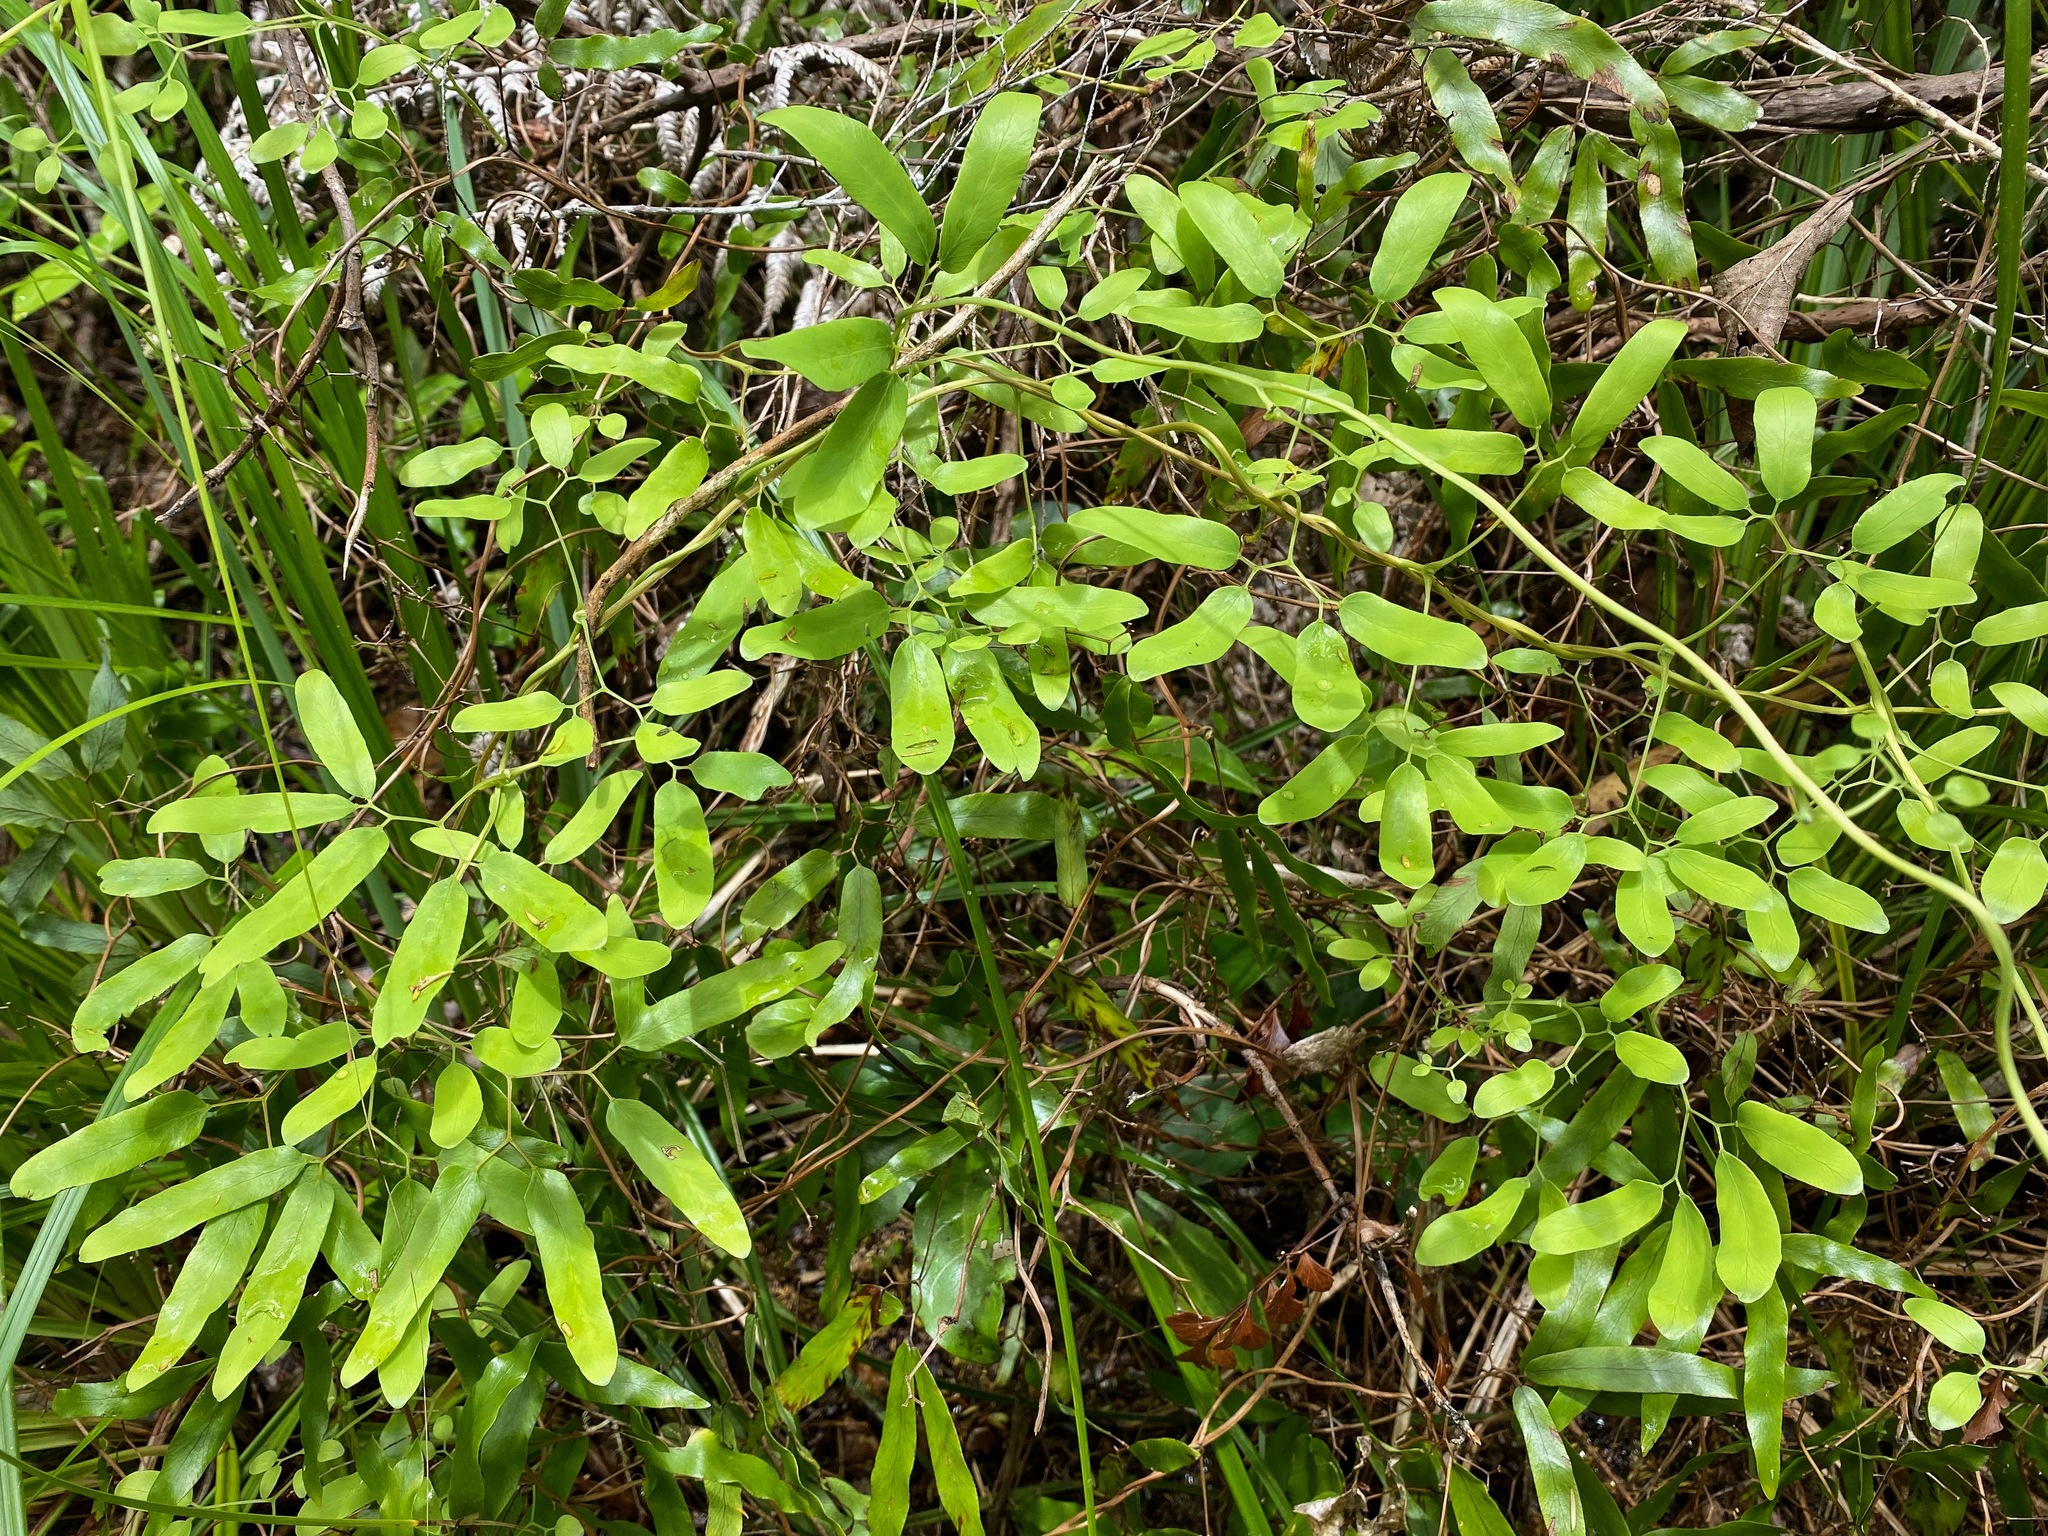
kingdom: Plantae
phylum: Tracheophyta
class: Polypodiopsida
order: Schizaeales
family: Lygodiaceae
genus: Lygodium
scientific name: Lygodium articulatum
